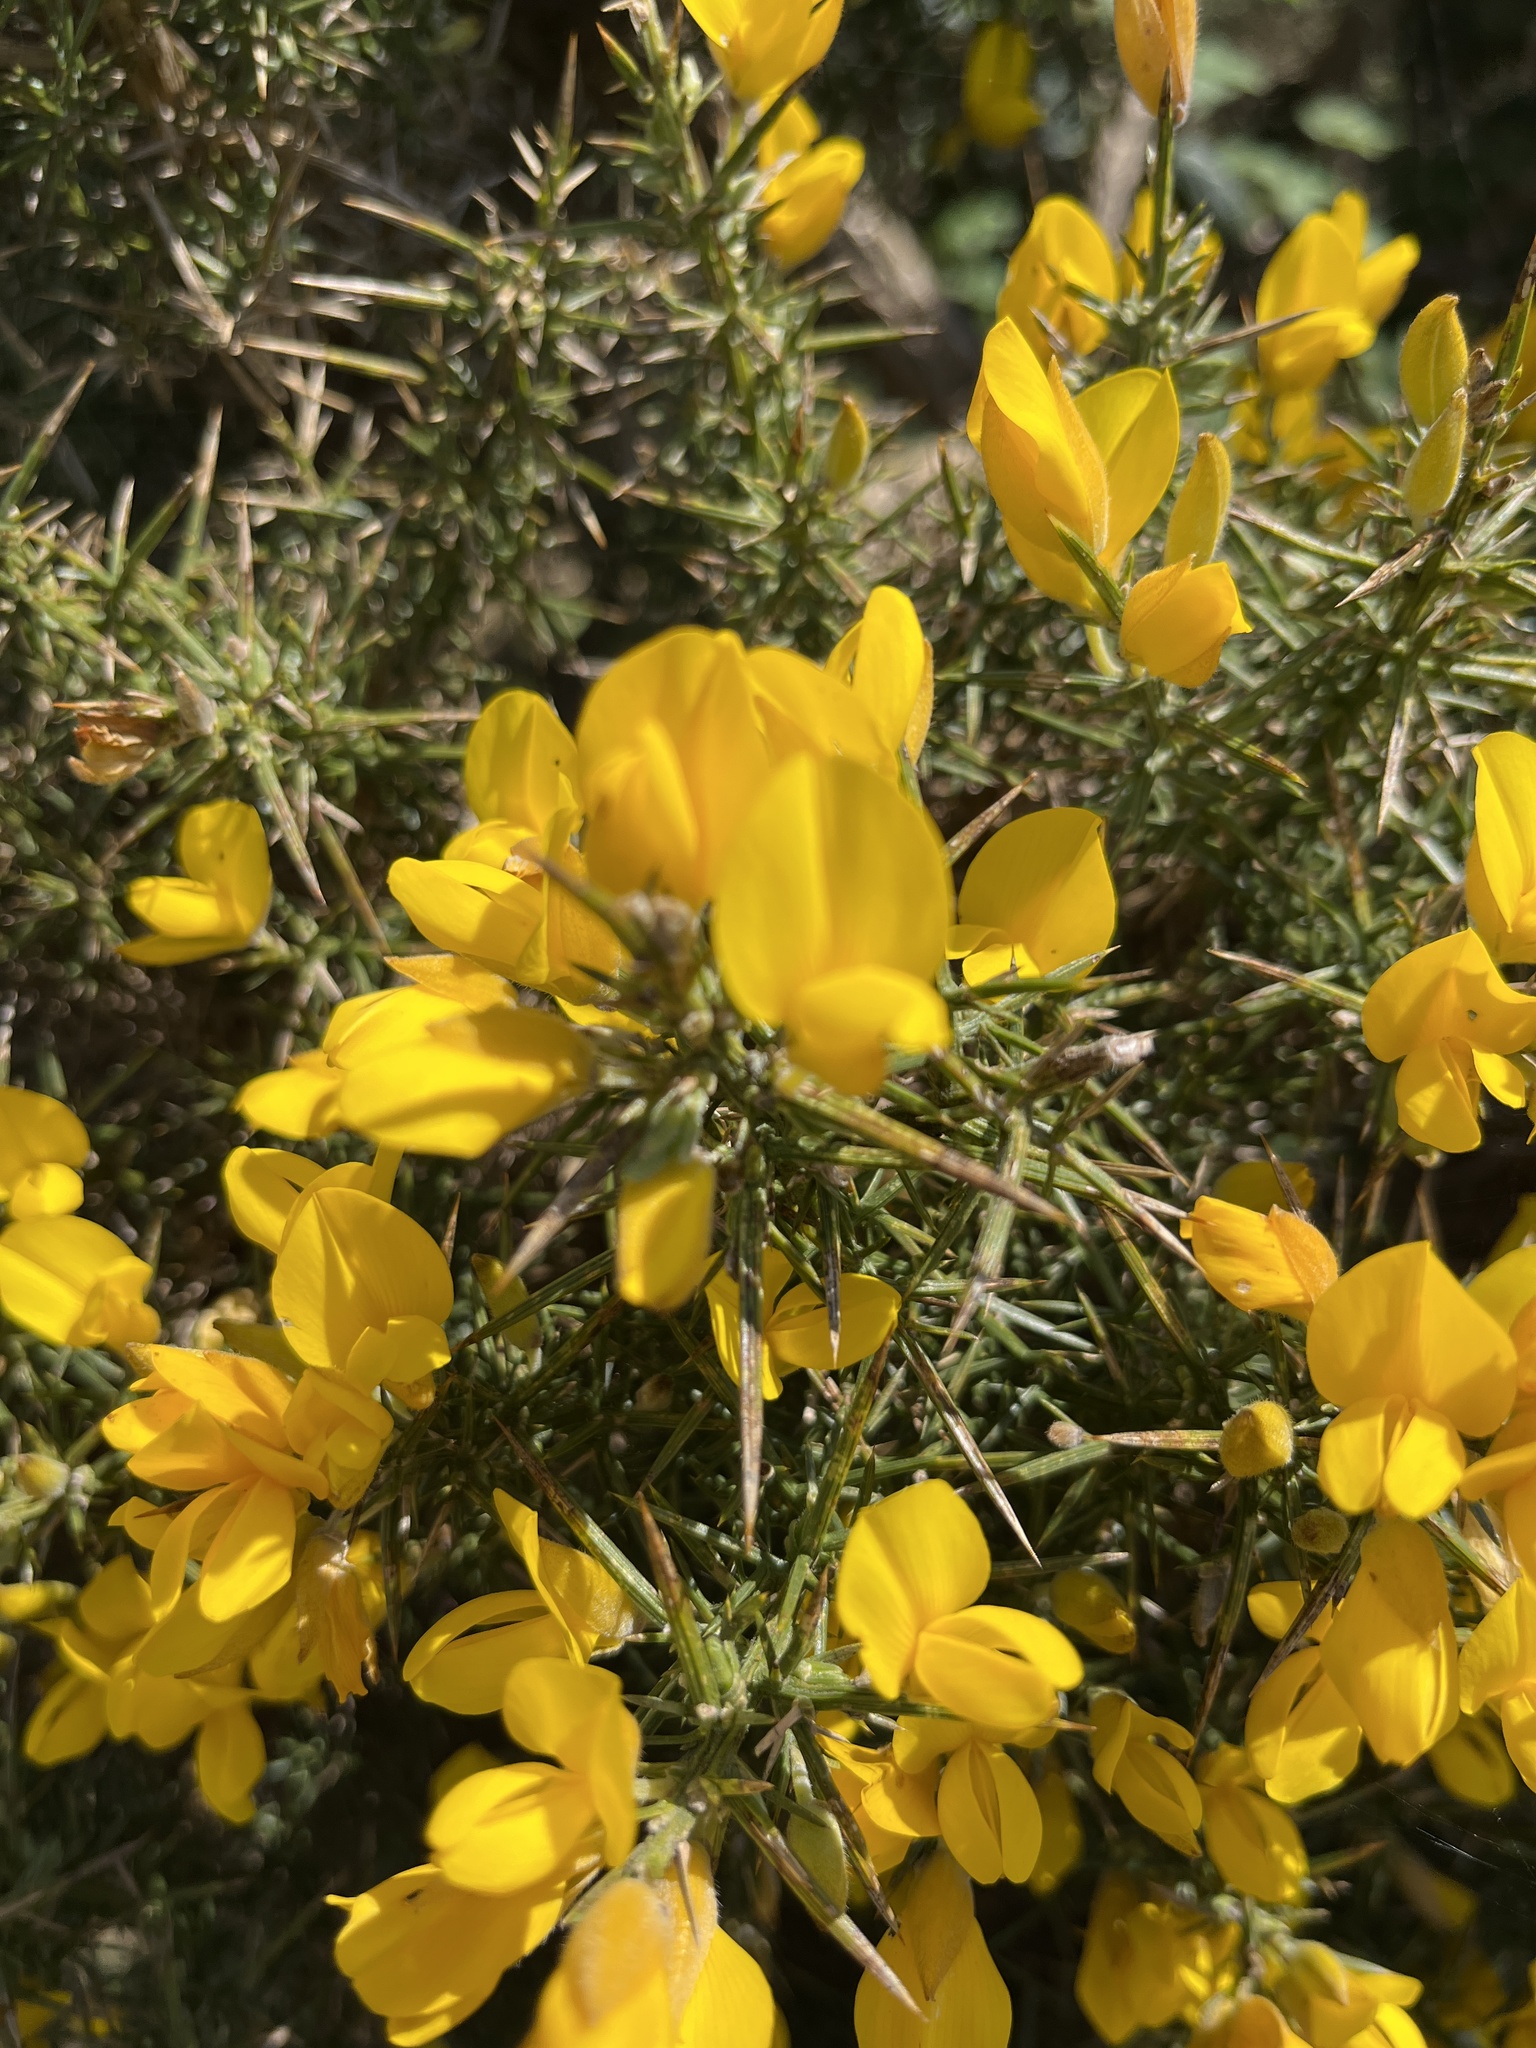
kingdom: Plantae
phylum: Tracheophyta
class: Magnoliopsida
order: Fabales
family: Fabaceae
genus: Ulex
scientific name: Ulex europaeus
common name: Common gorse
